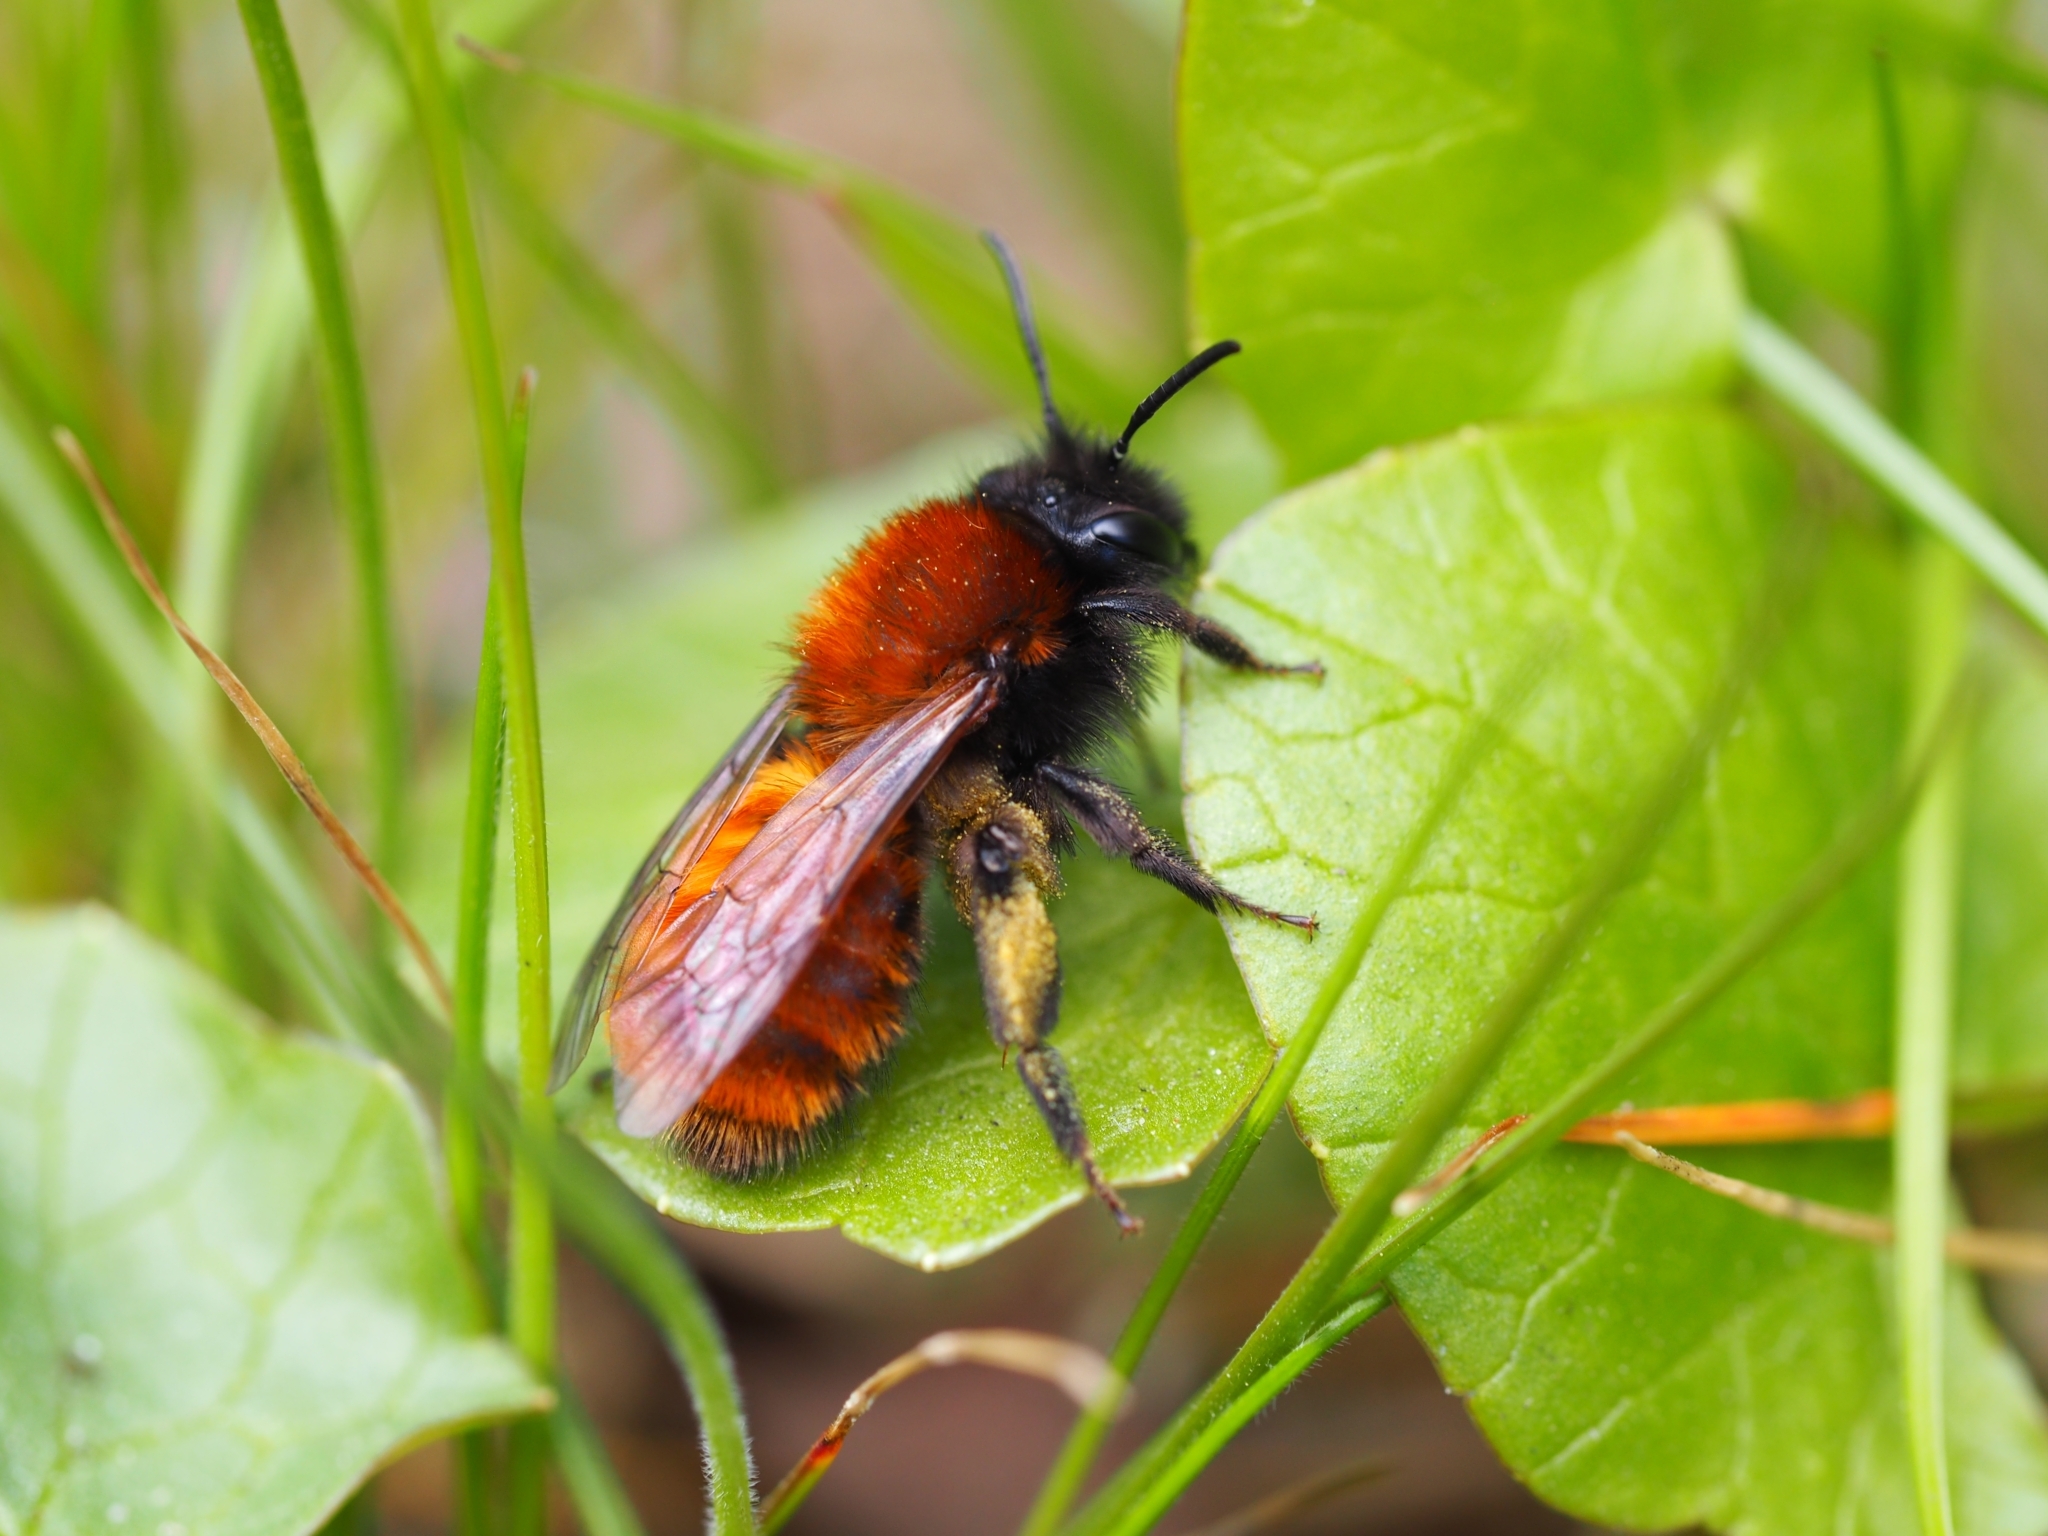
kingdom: Animalia
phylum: Arthropoda
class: Insecta
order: Hymenoptera
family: Andrenidae
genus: Andrena
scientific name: Andrena fulva
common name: Tawny mining bee
